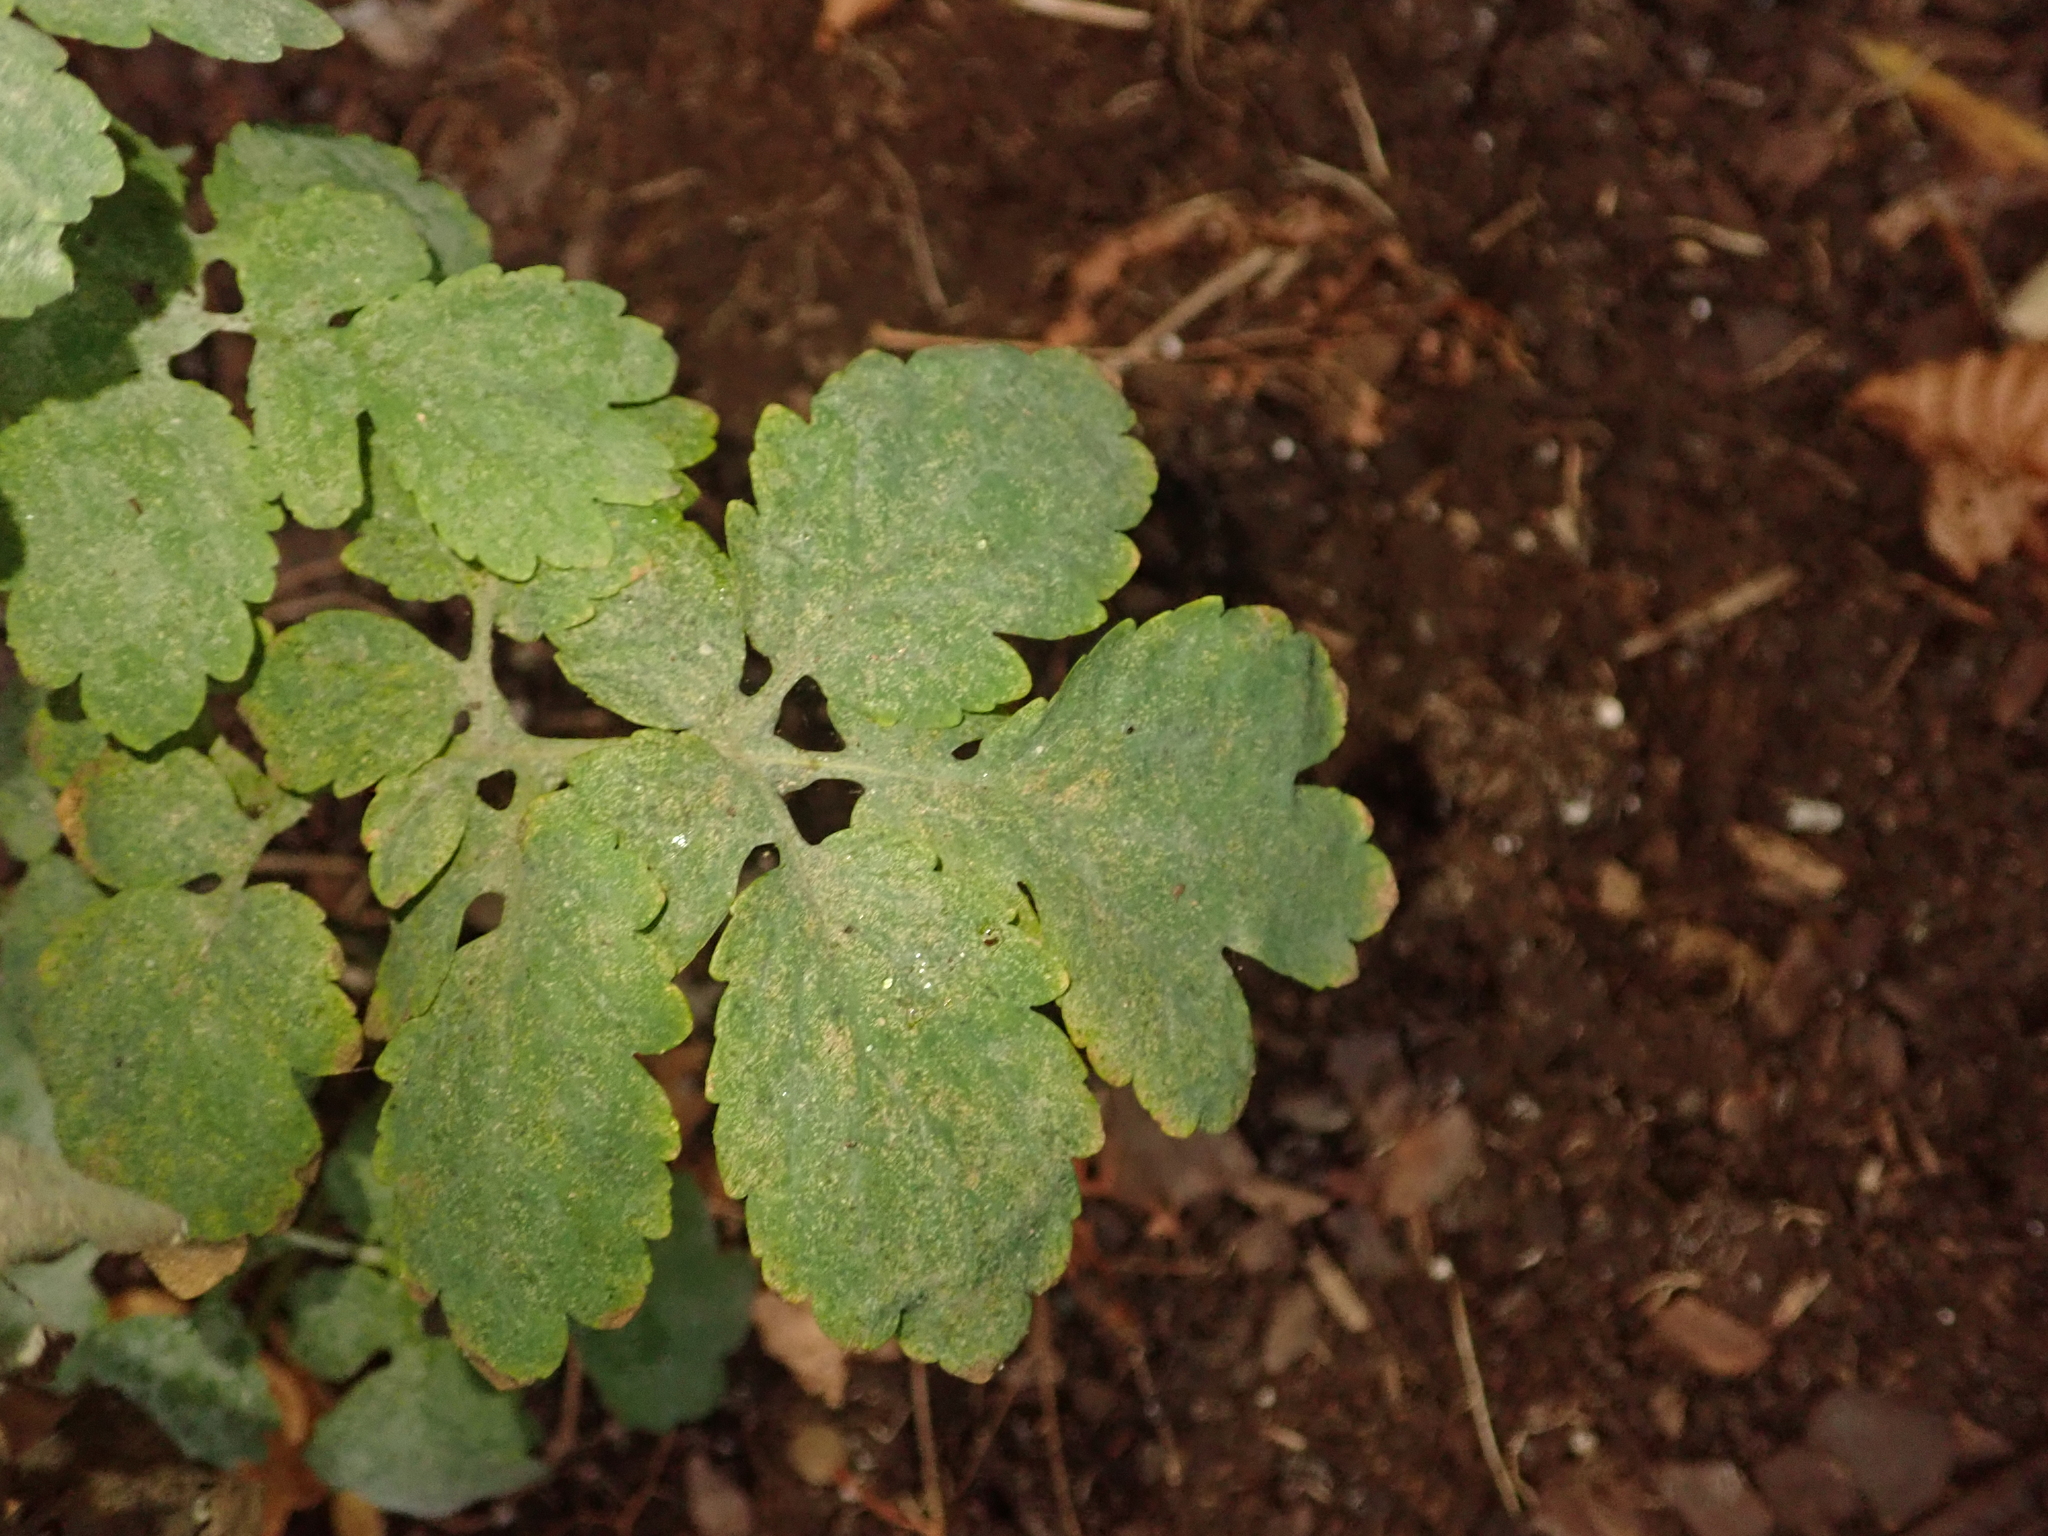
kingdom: Plantae
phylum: Tracheophyta
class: Magnoliopsida
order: Ranunculales
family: Papaveraceae
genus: Chelidonium
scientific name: Chelidonium majus
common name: Greater celandine
